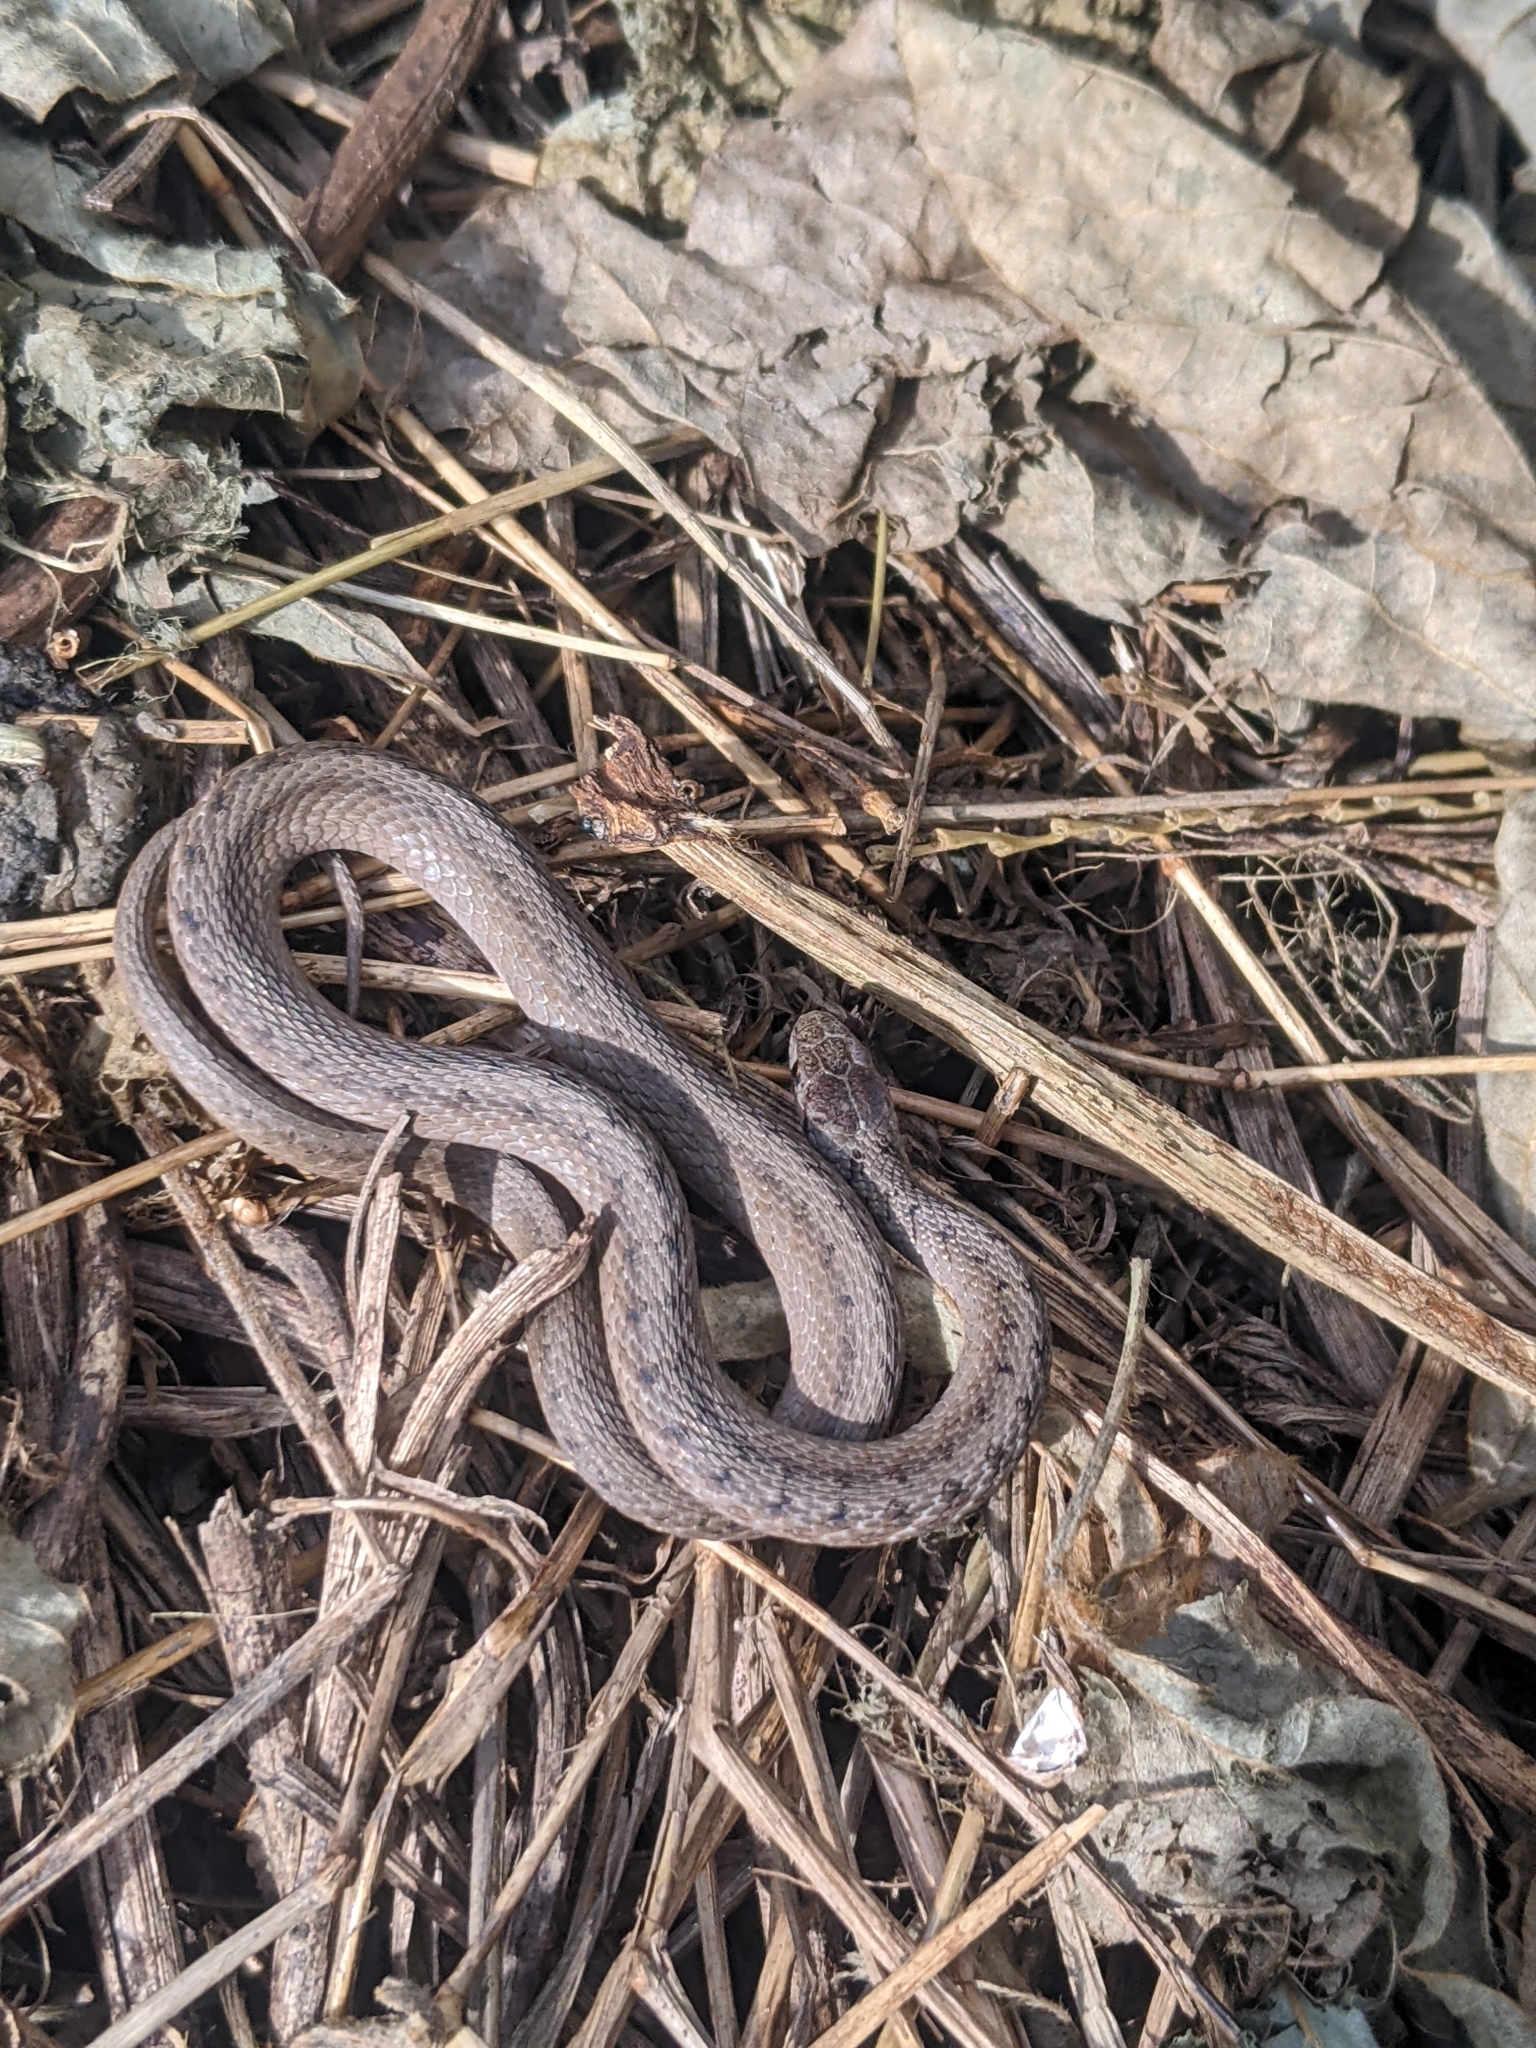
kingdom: Animalia
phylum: Chordata
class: Squamata
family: Colubridae
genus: Storeria
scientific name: Storeria dekayi
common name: (dekay’s) brown snake
